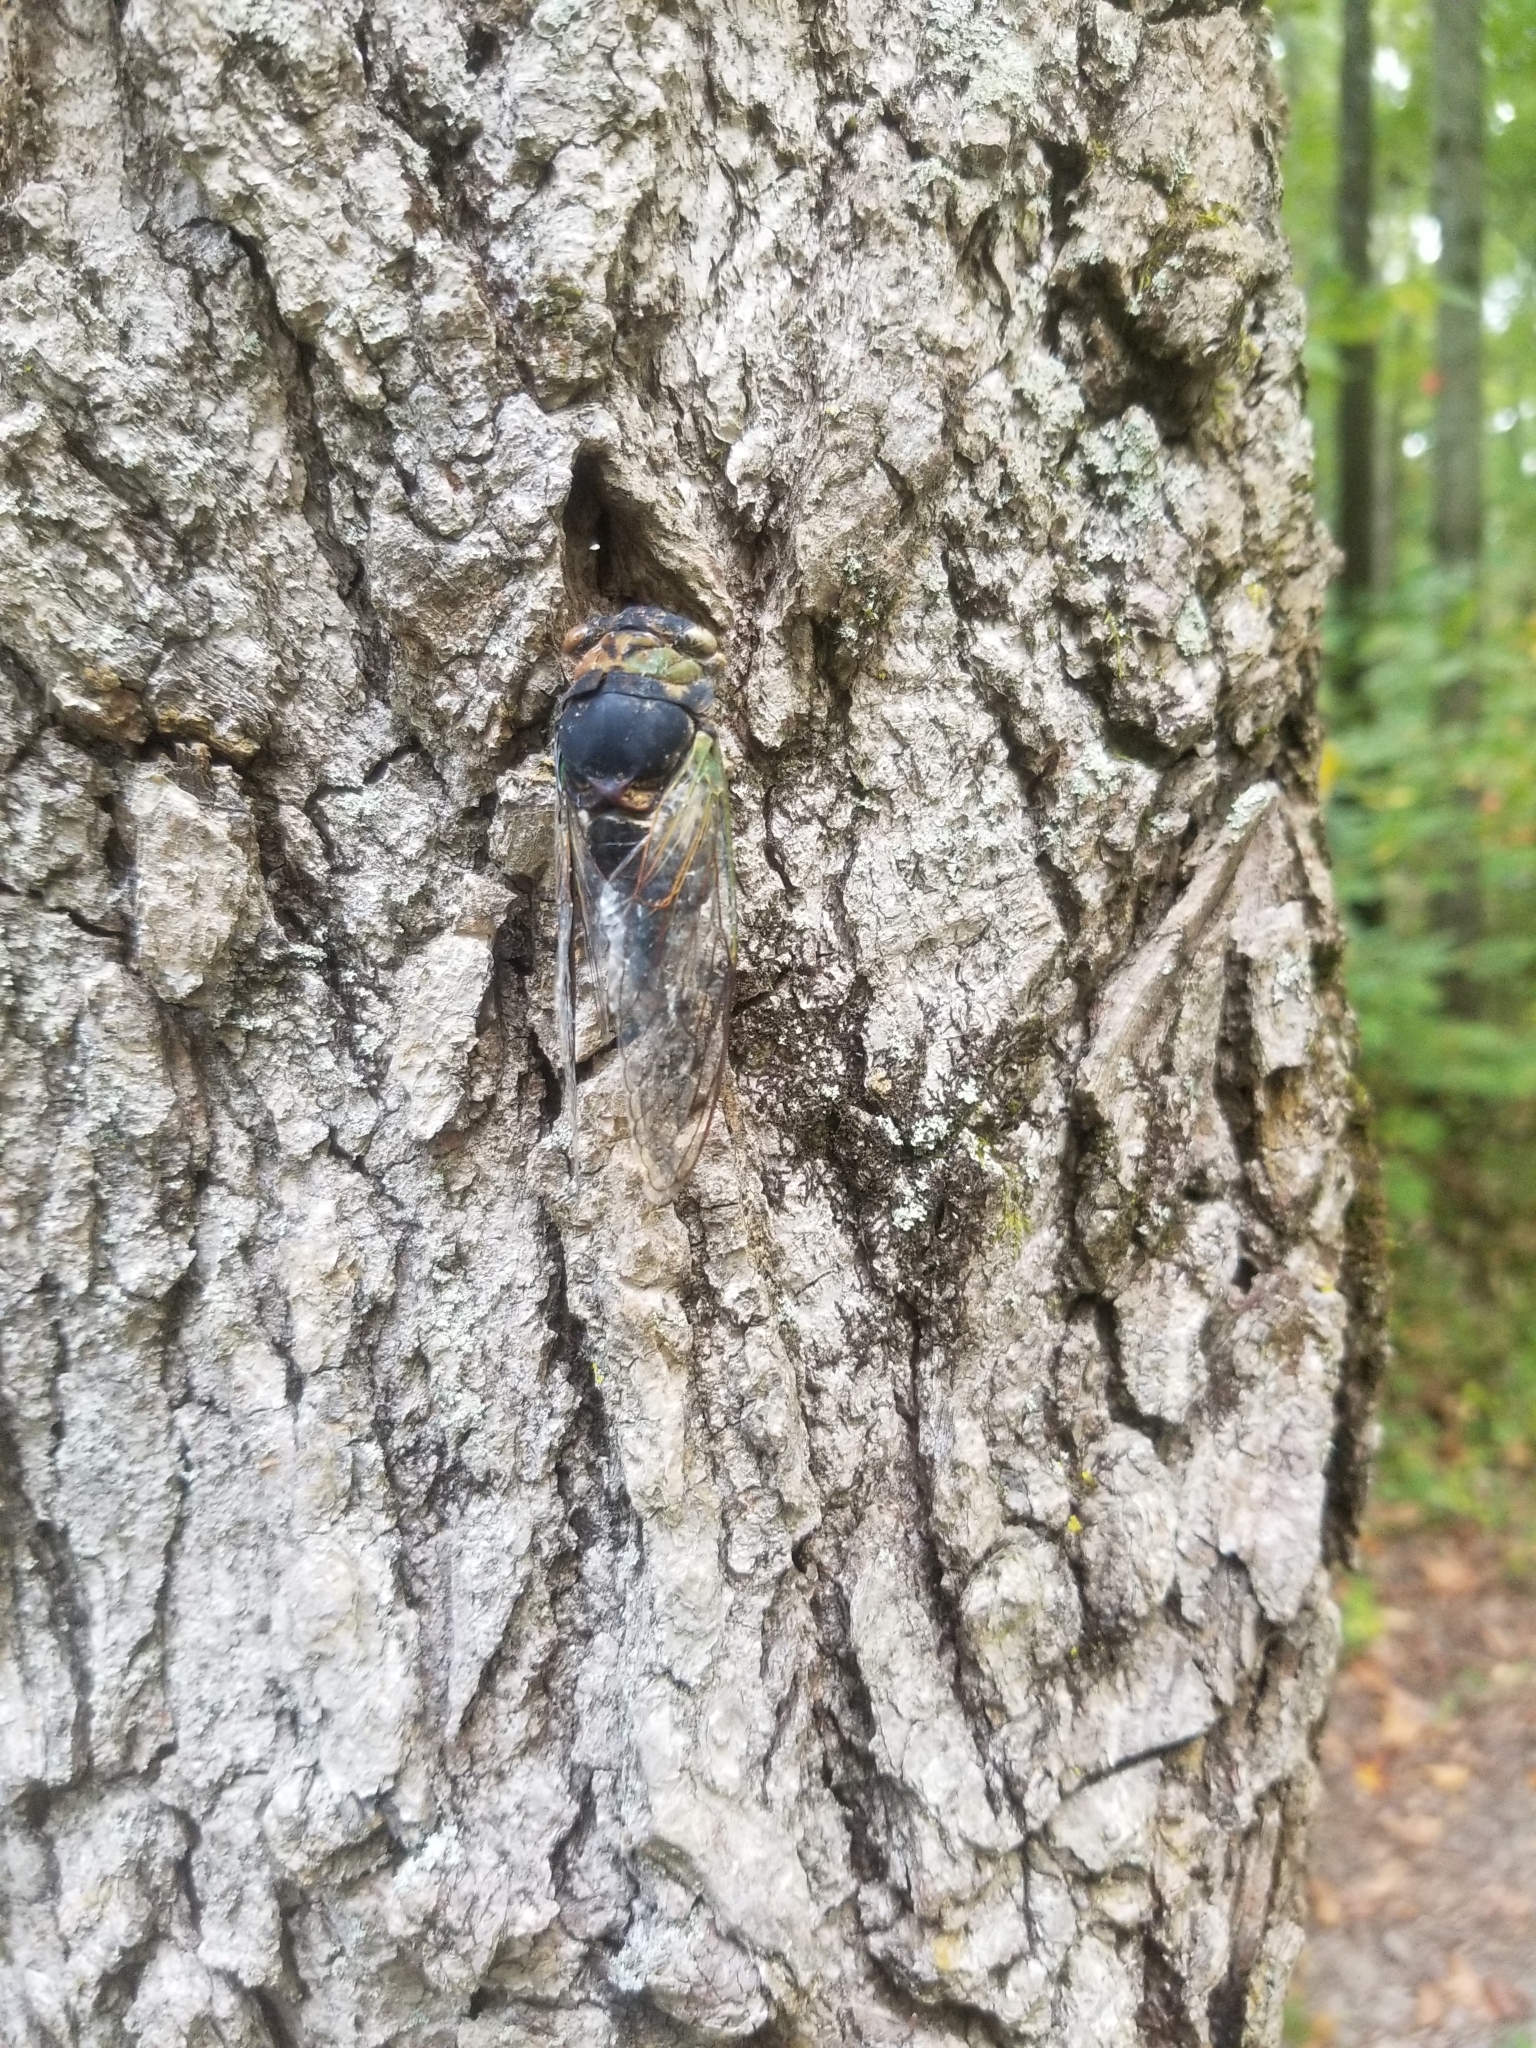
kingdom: Animalia
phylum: Arthropoda
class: Insecta
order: Hemiptera
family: Cicadidae
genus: Neotibicen
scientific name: Neotibicen tibicen
